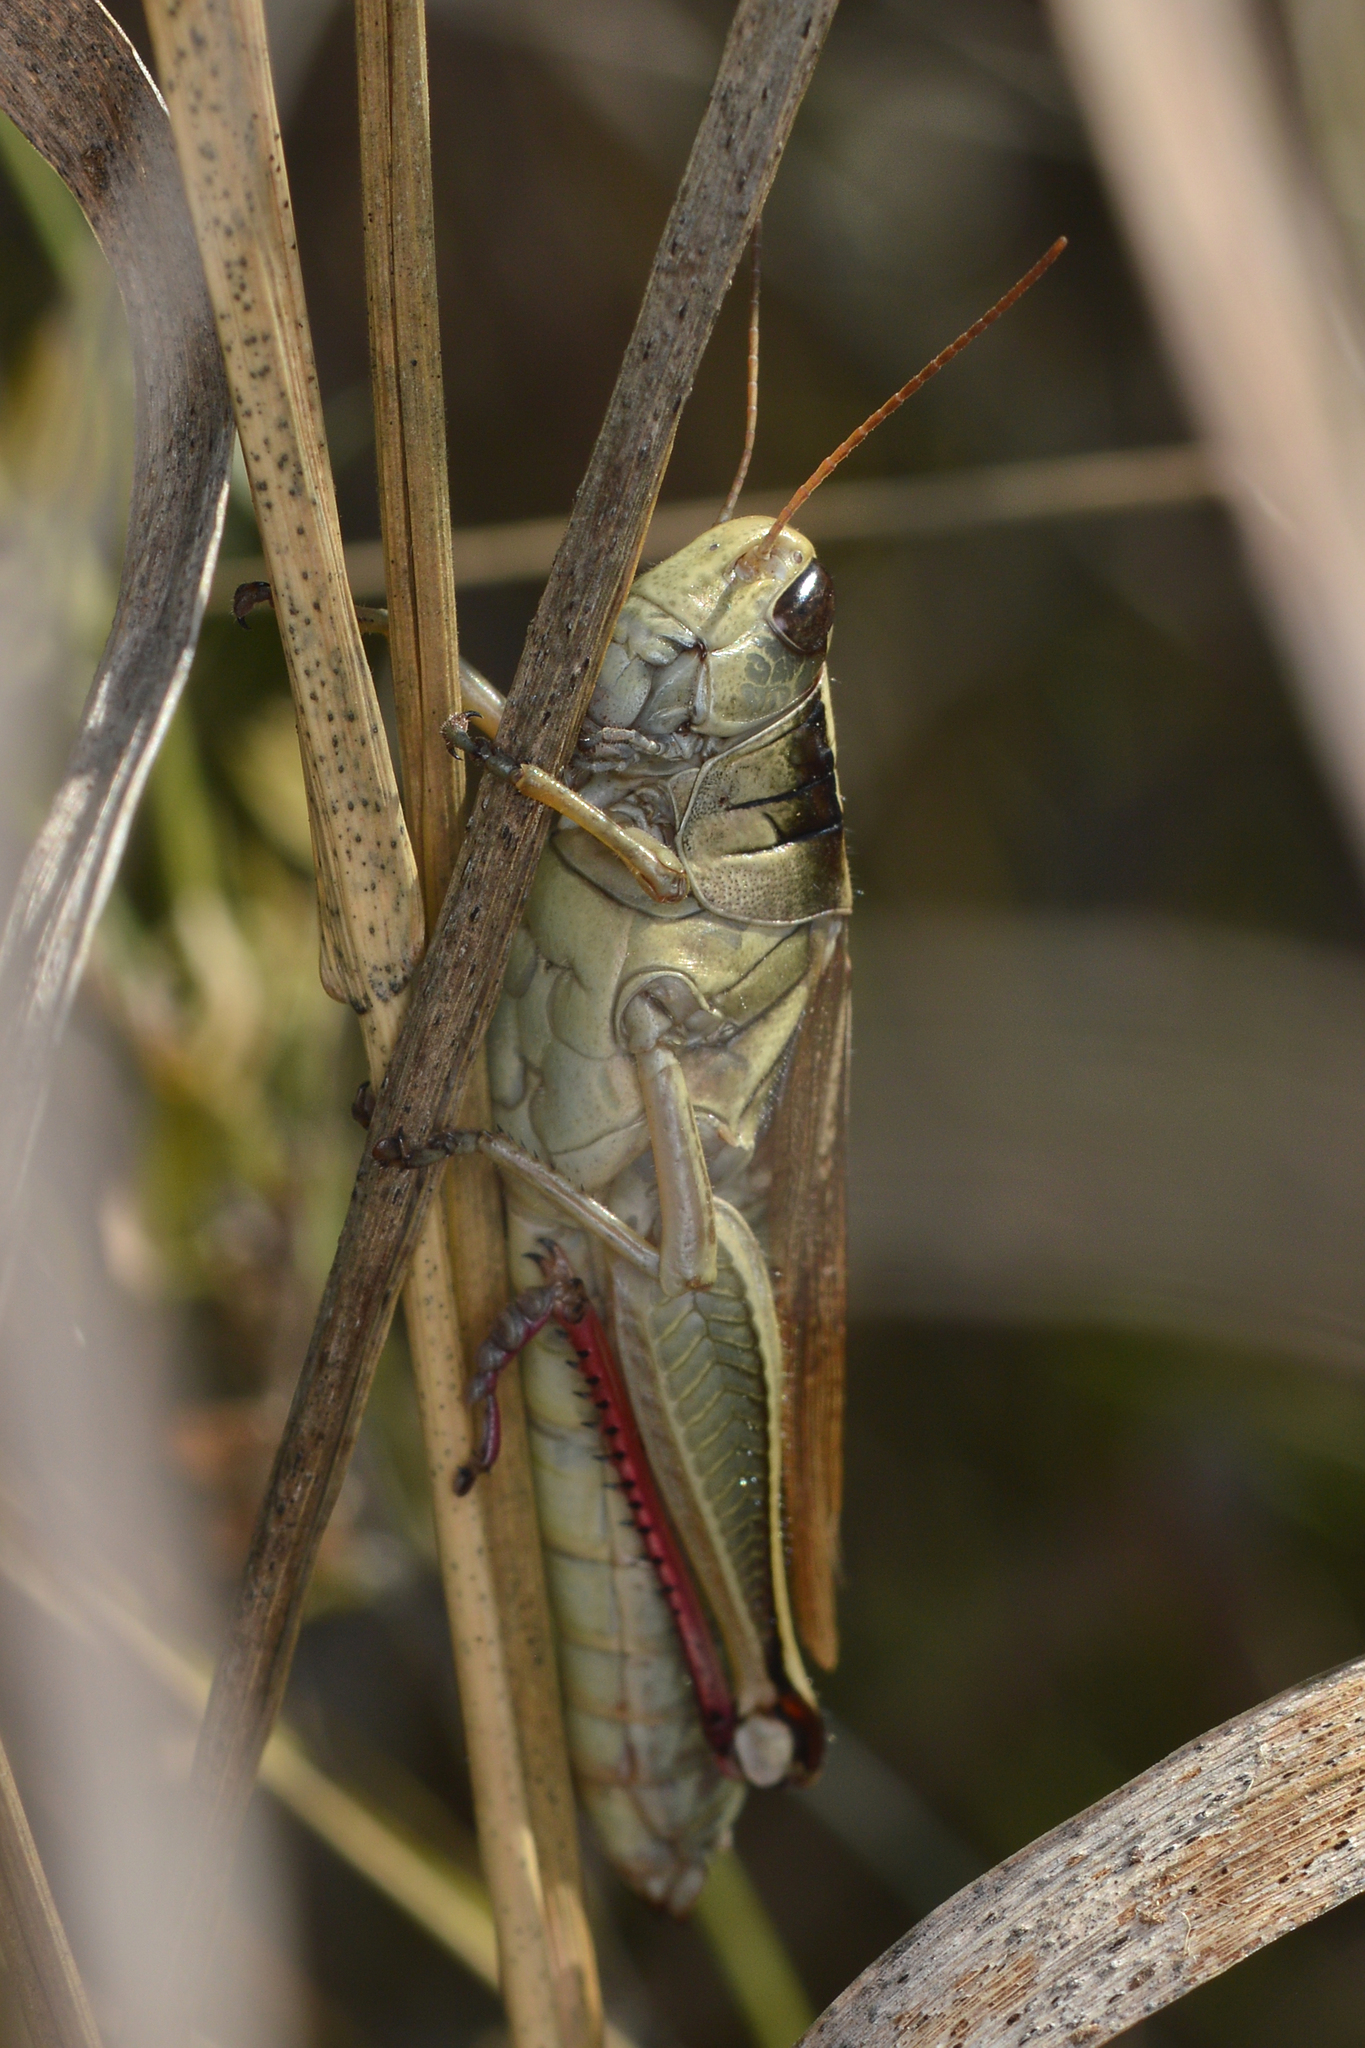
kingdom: Animalia
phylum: Arthropoda
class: Insecta
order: Orthoptera
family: Acrididae
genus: Melanoplus
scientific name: Melanoplus bivittatus
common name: Two-striped grasshopper
